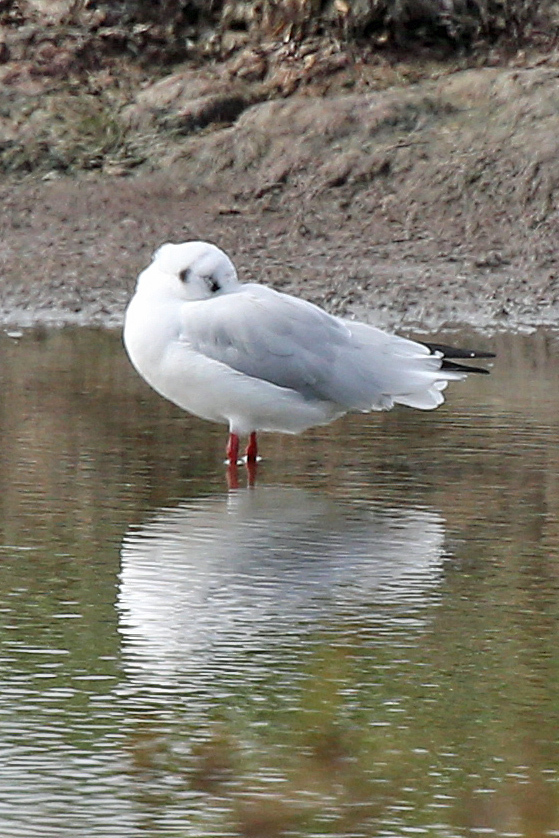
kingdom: Animalia
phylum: Chordata
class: Aves
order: Charadriiformes
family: Laridae
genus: Chroicocephalus
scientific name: Chroicocephalus ridibundus
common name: Black-headed gull
